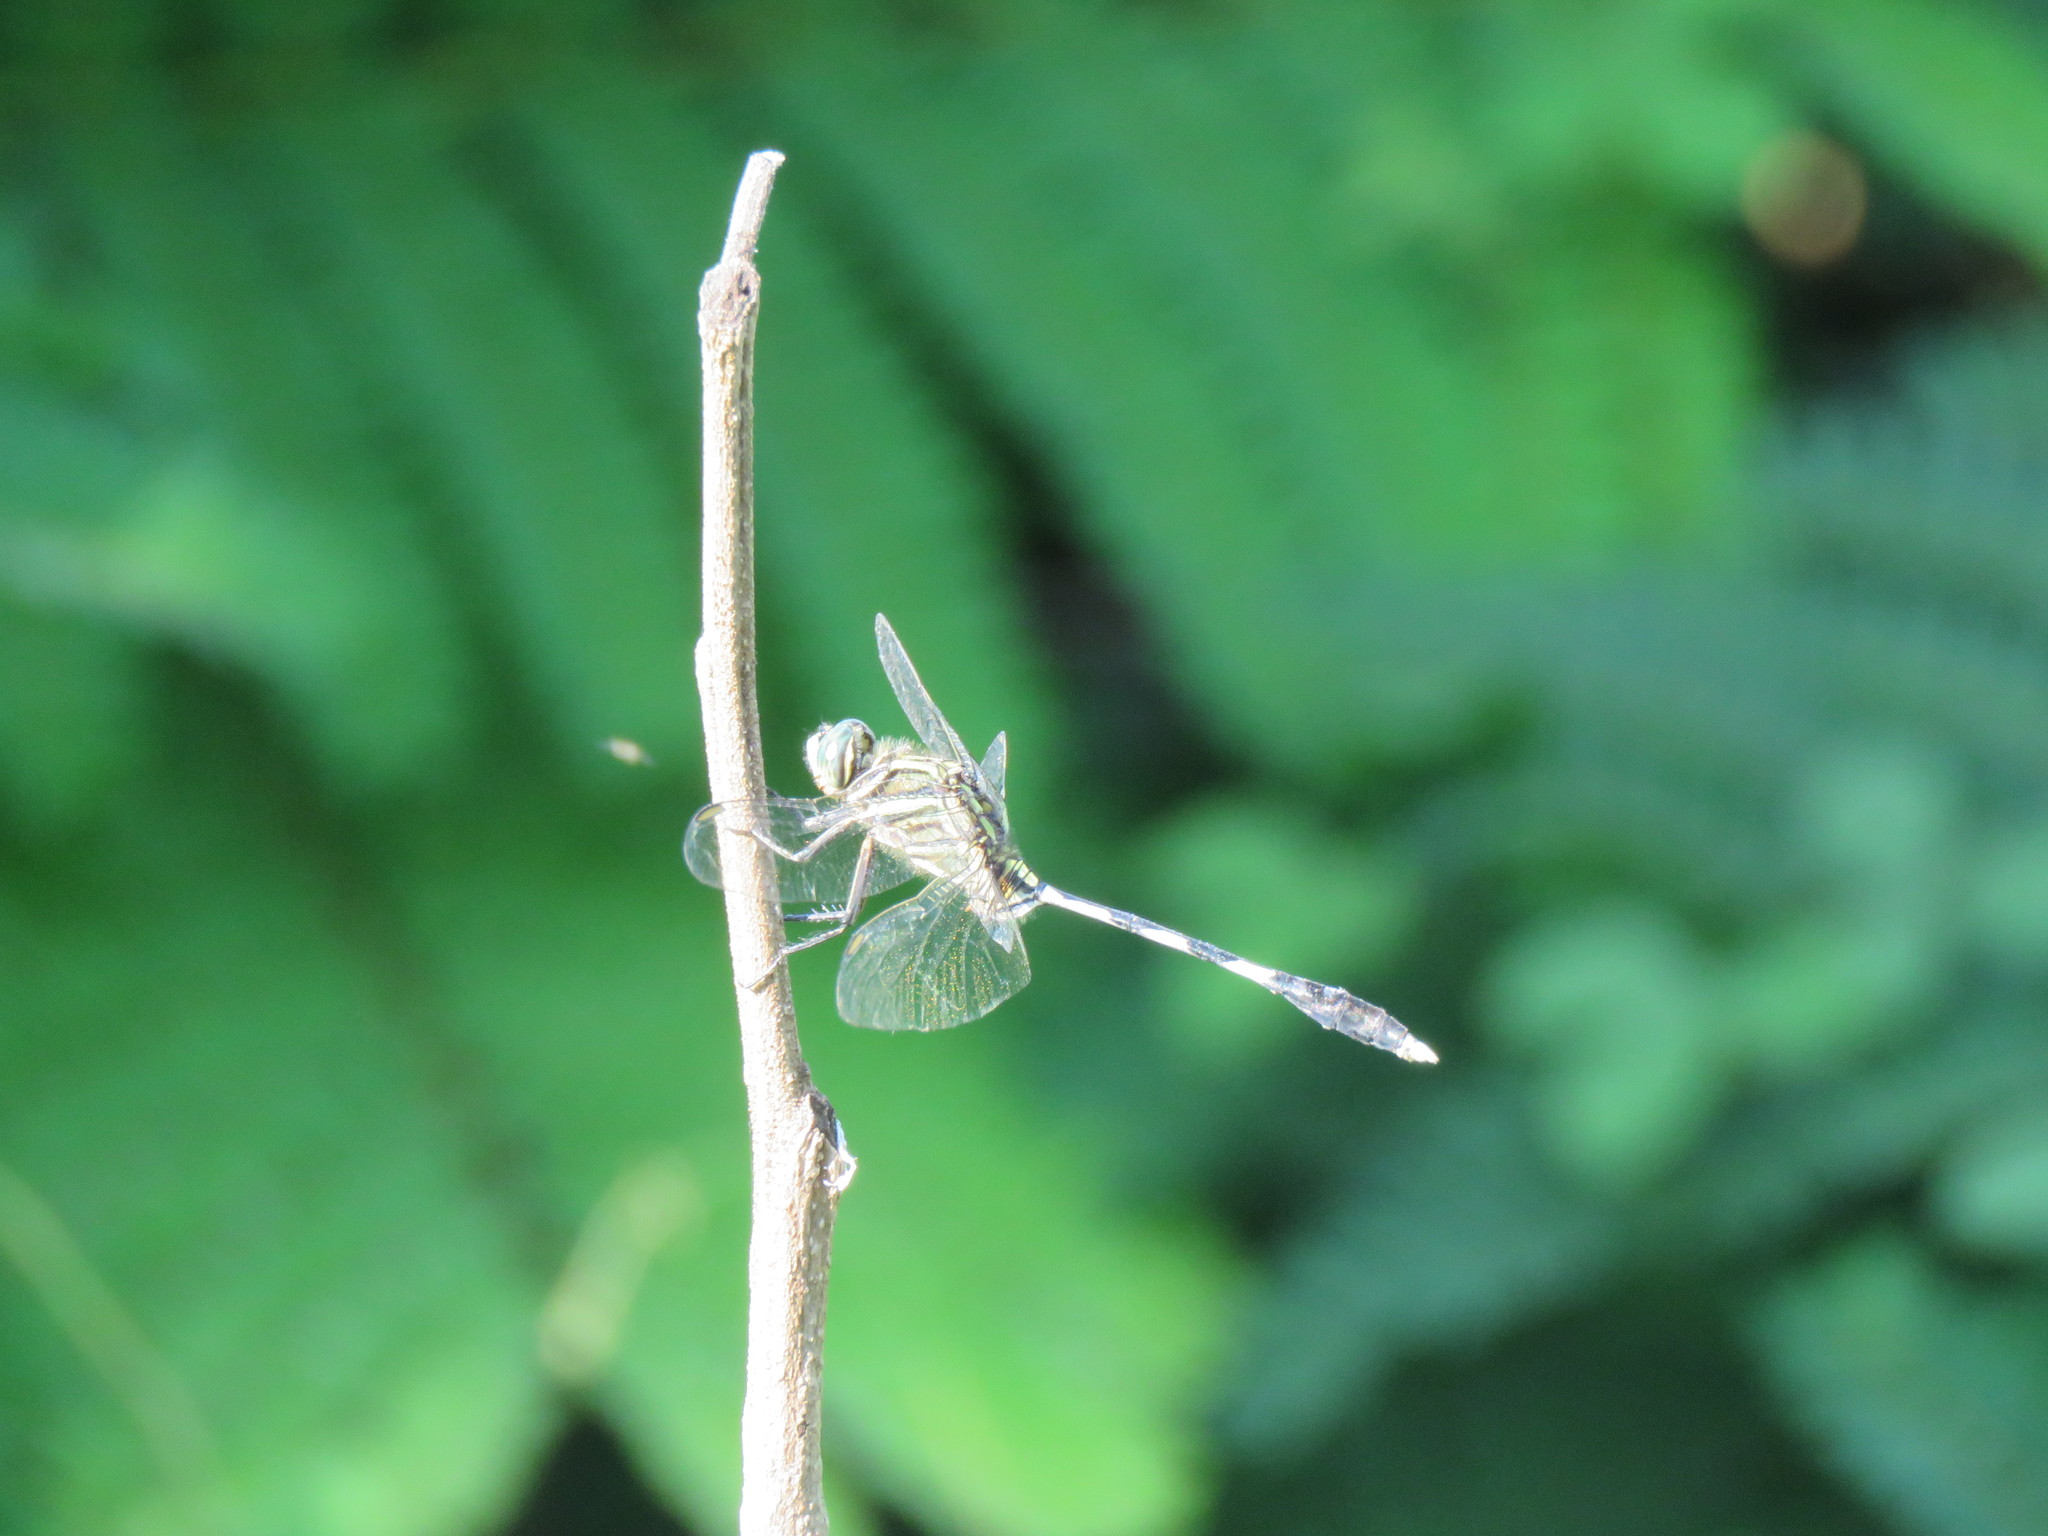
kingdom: Animalia
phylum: Arthropoda
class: Insecta
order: Odonata
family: Libellulidae
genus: Orthetrum
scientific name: Orthetrum sabina
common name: Slender skimmer
